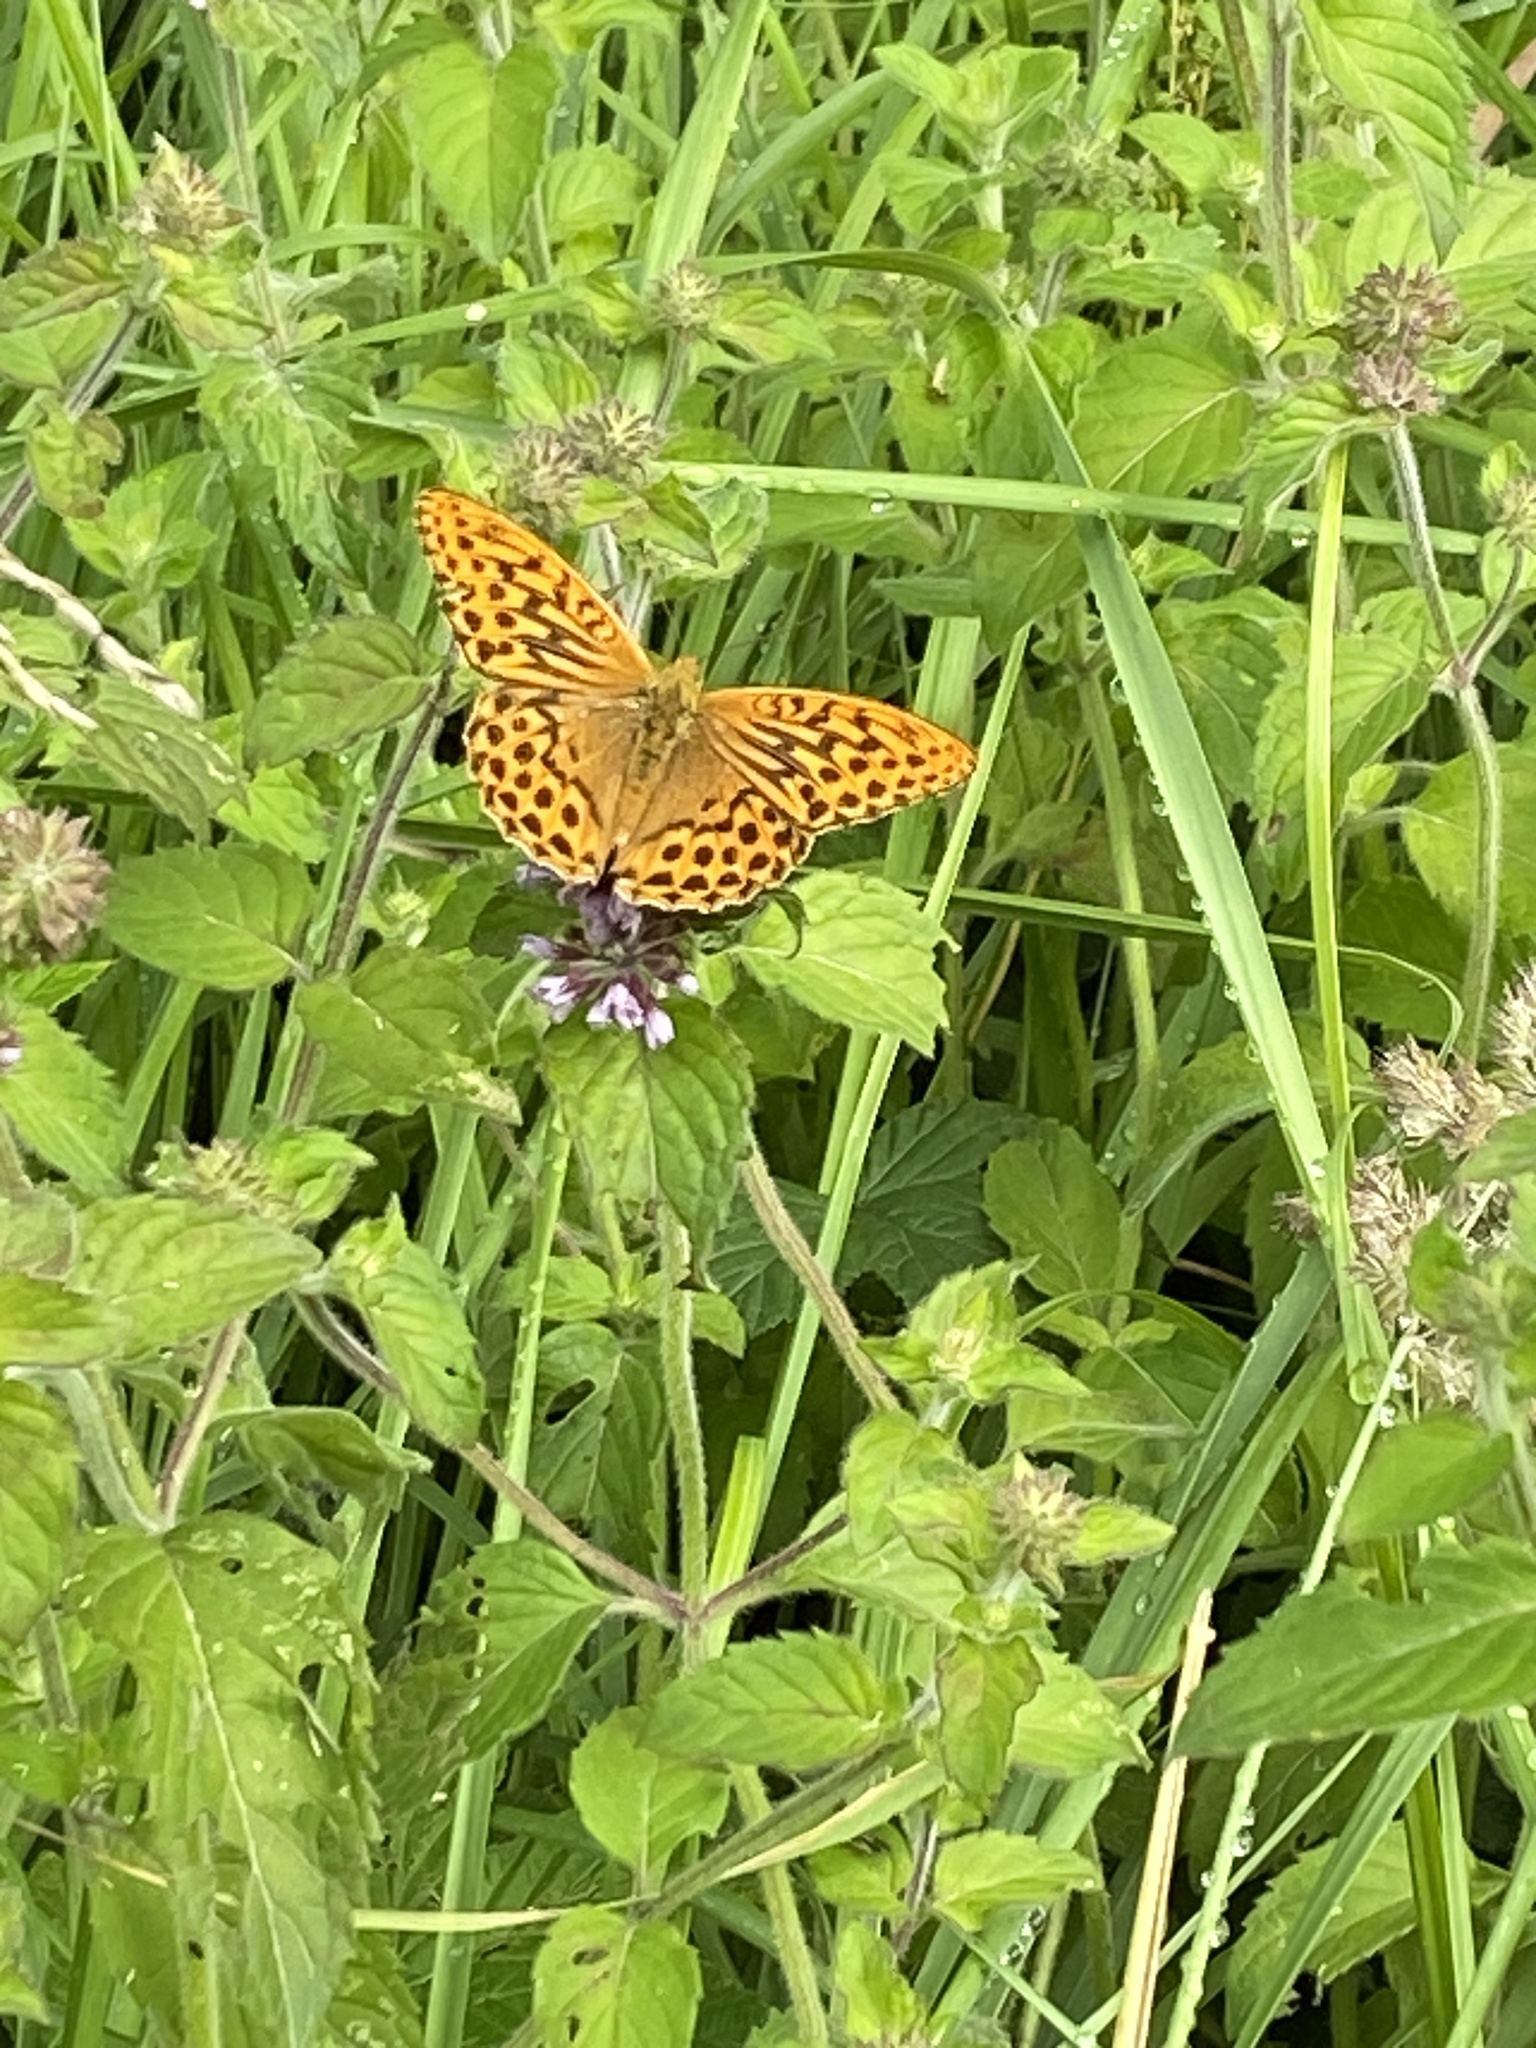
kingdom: Animalia
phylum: Arthropoda
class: Insecta
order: Lepidoptera
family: Nymphalidae
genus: Argynnis
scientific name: Argynnis paphia
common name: Silver-washed fritillary
